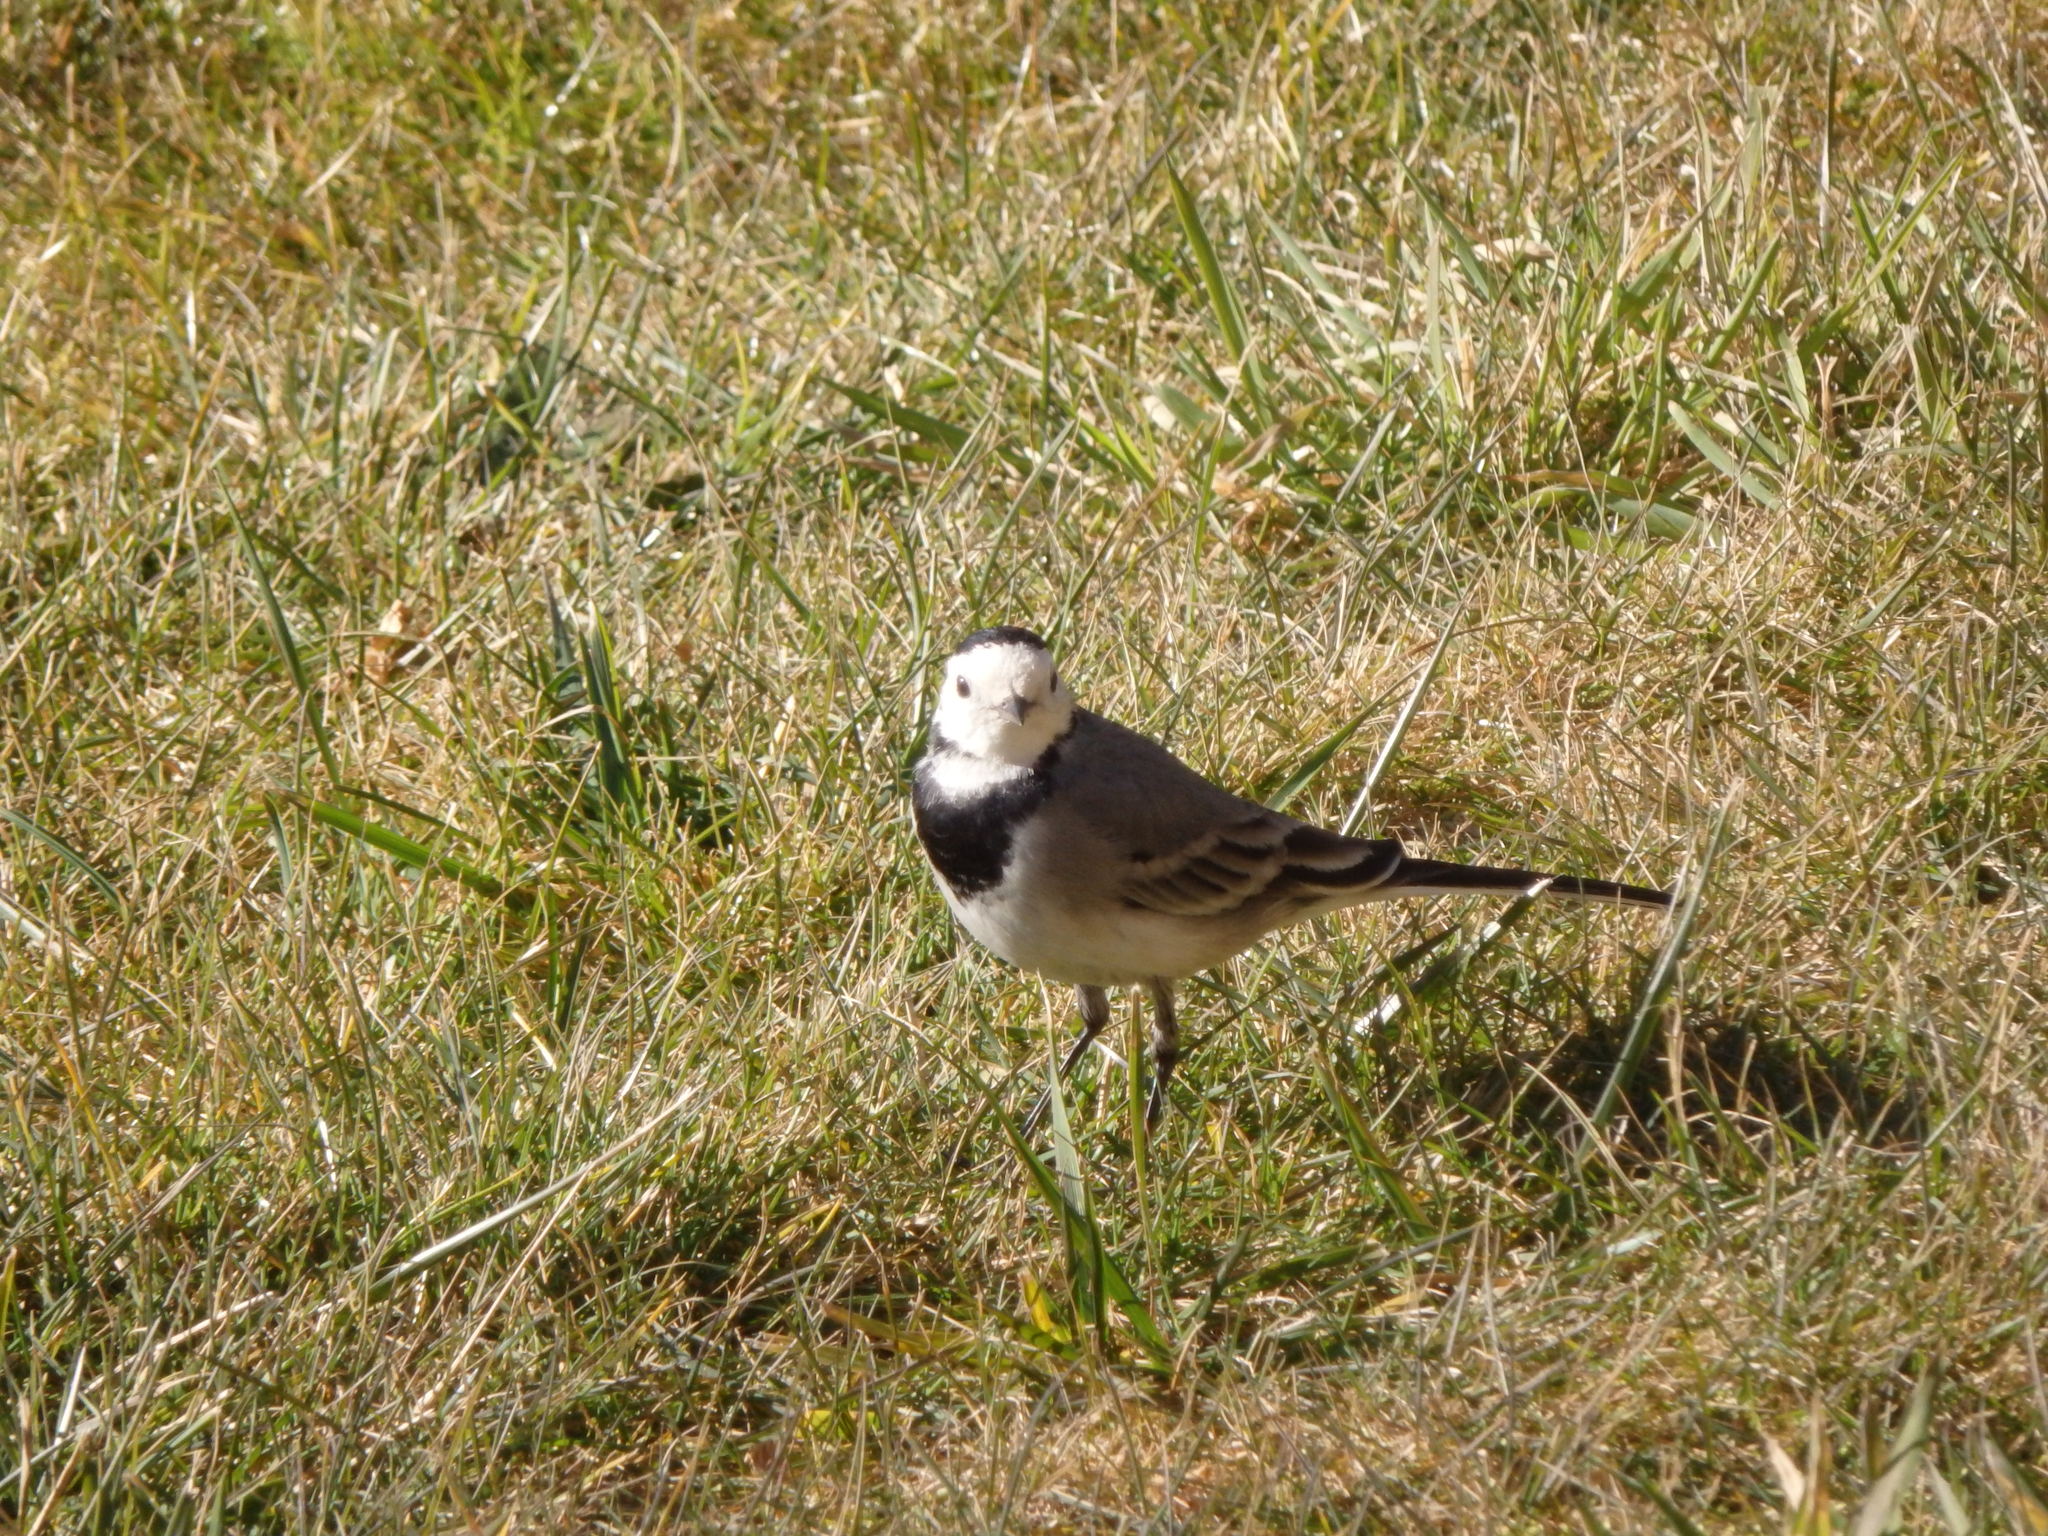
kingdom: Animalia
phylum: Chordata
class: Aves
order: Passeriformes
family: Motacillidae
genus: Motacilla
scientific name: Motacilla alba
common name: White wagtail
